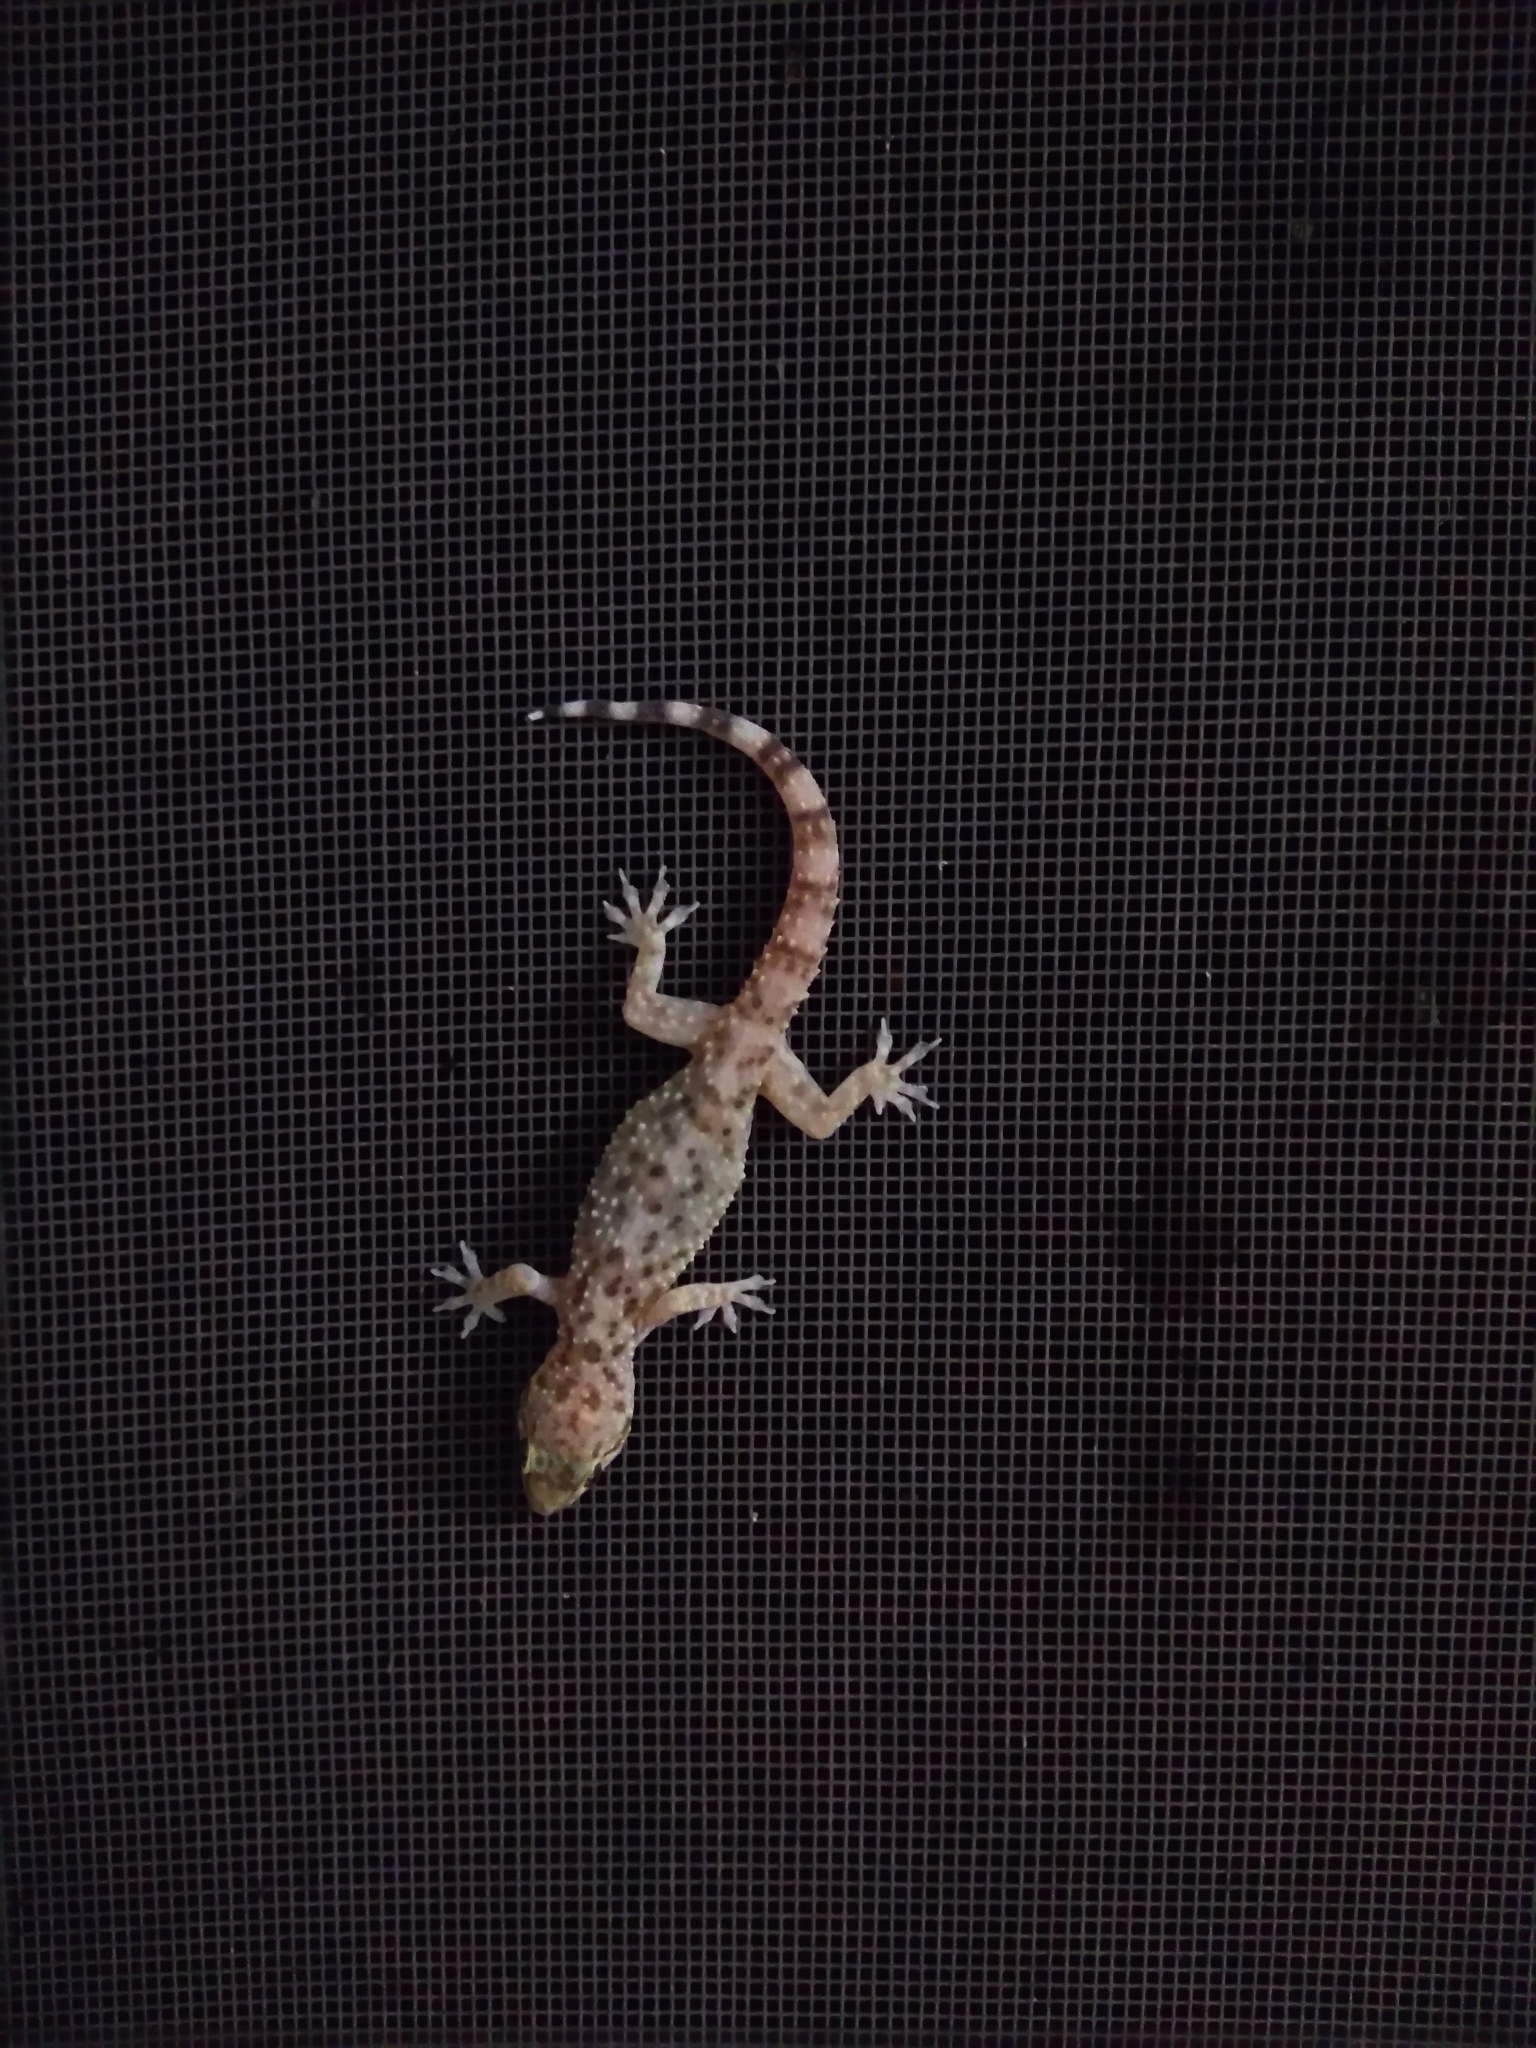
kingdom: Animalia
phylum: Chordata
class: Squamata
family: Gekkonidae
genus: Hemidactylus
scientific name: Hemidactylus turcicus
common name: Turkish gecko
